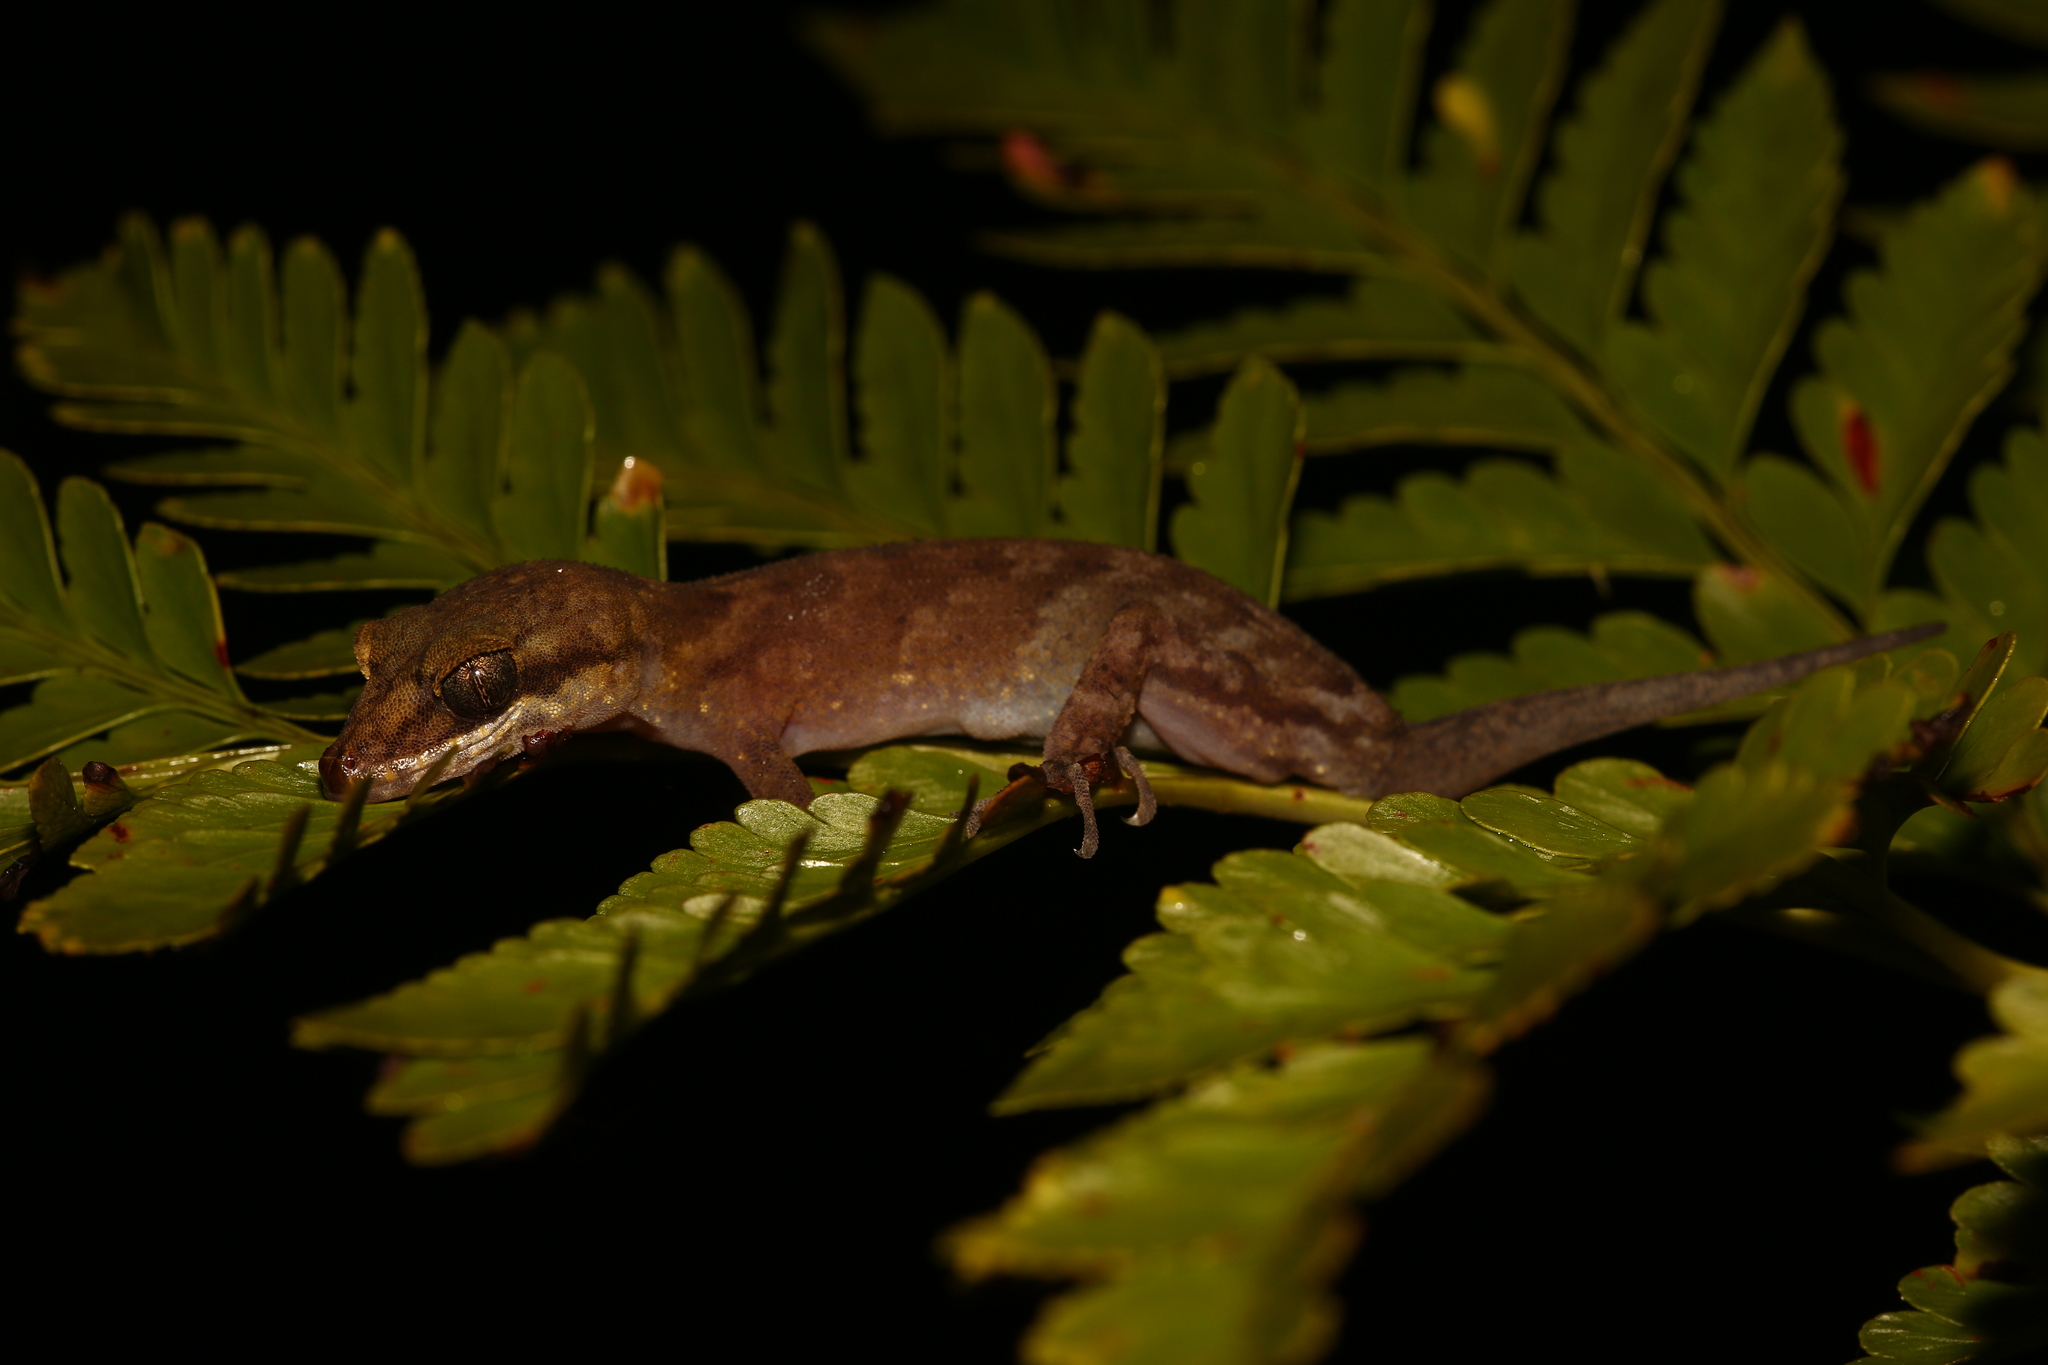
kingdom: Animalia
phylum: Chordata
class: Squamata
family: Gekkonidae
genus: Nactus
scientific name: Nactus pelagicus
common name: Pelagic gecko
